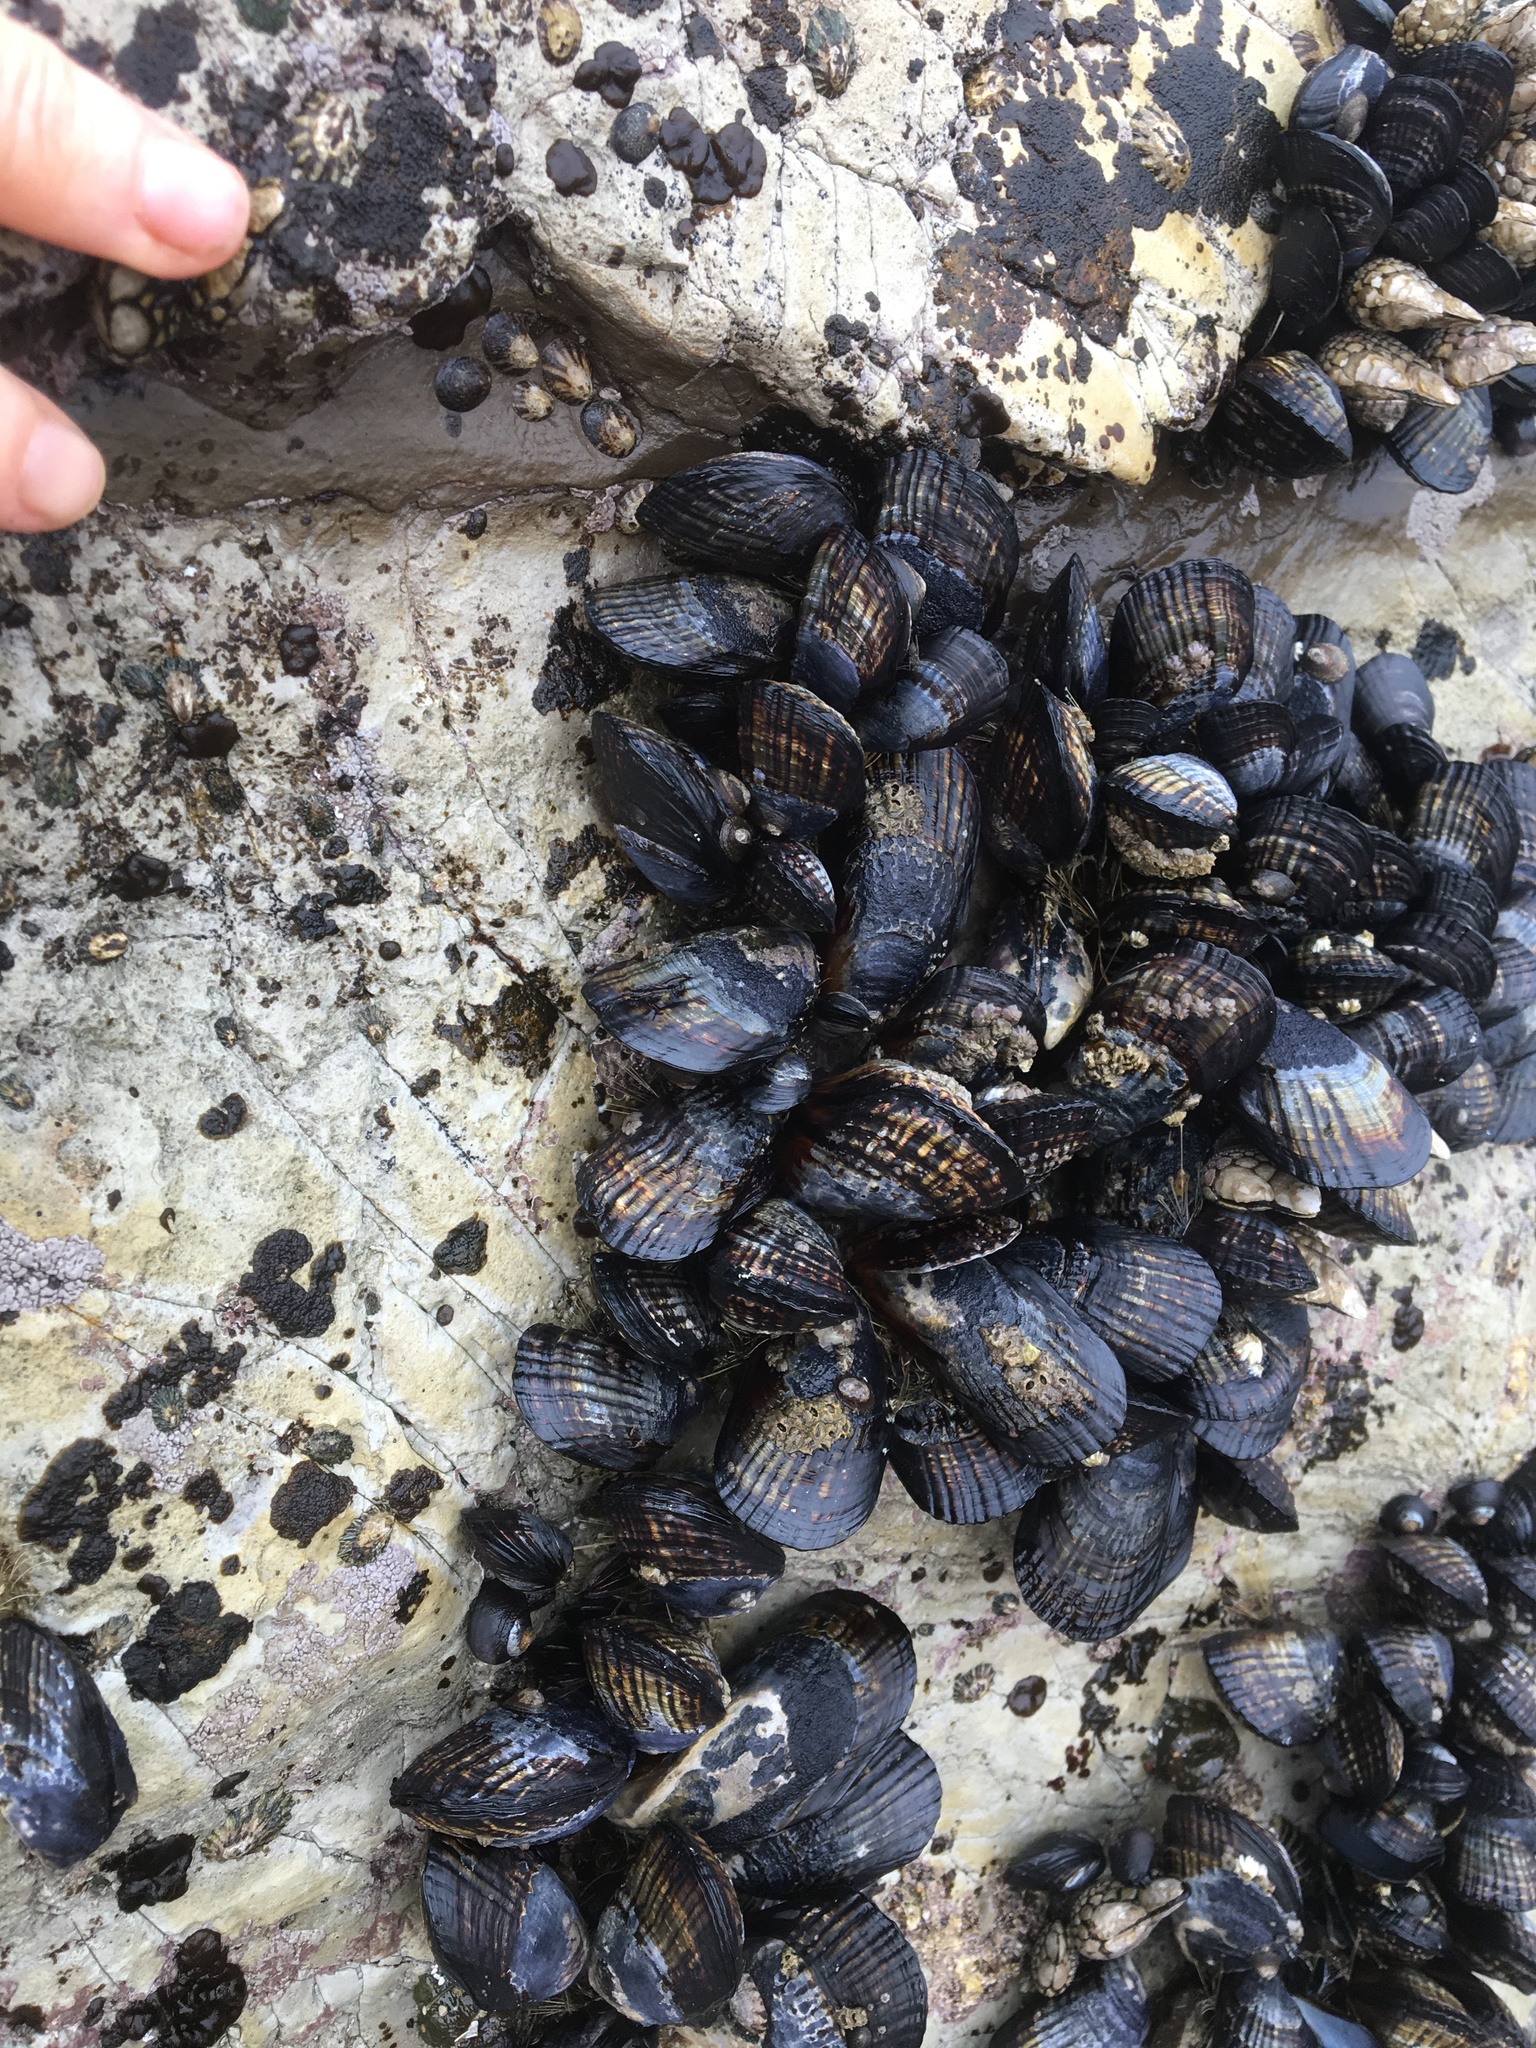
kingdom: Animalia
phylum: Mollusca
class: Bivalvia
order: Mytilida
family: Mytilidae
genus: Mytilus
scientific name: Mytilus californianus
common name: California mussel
